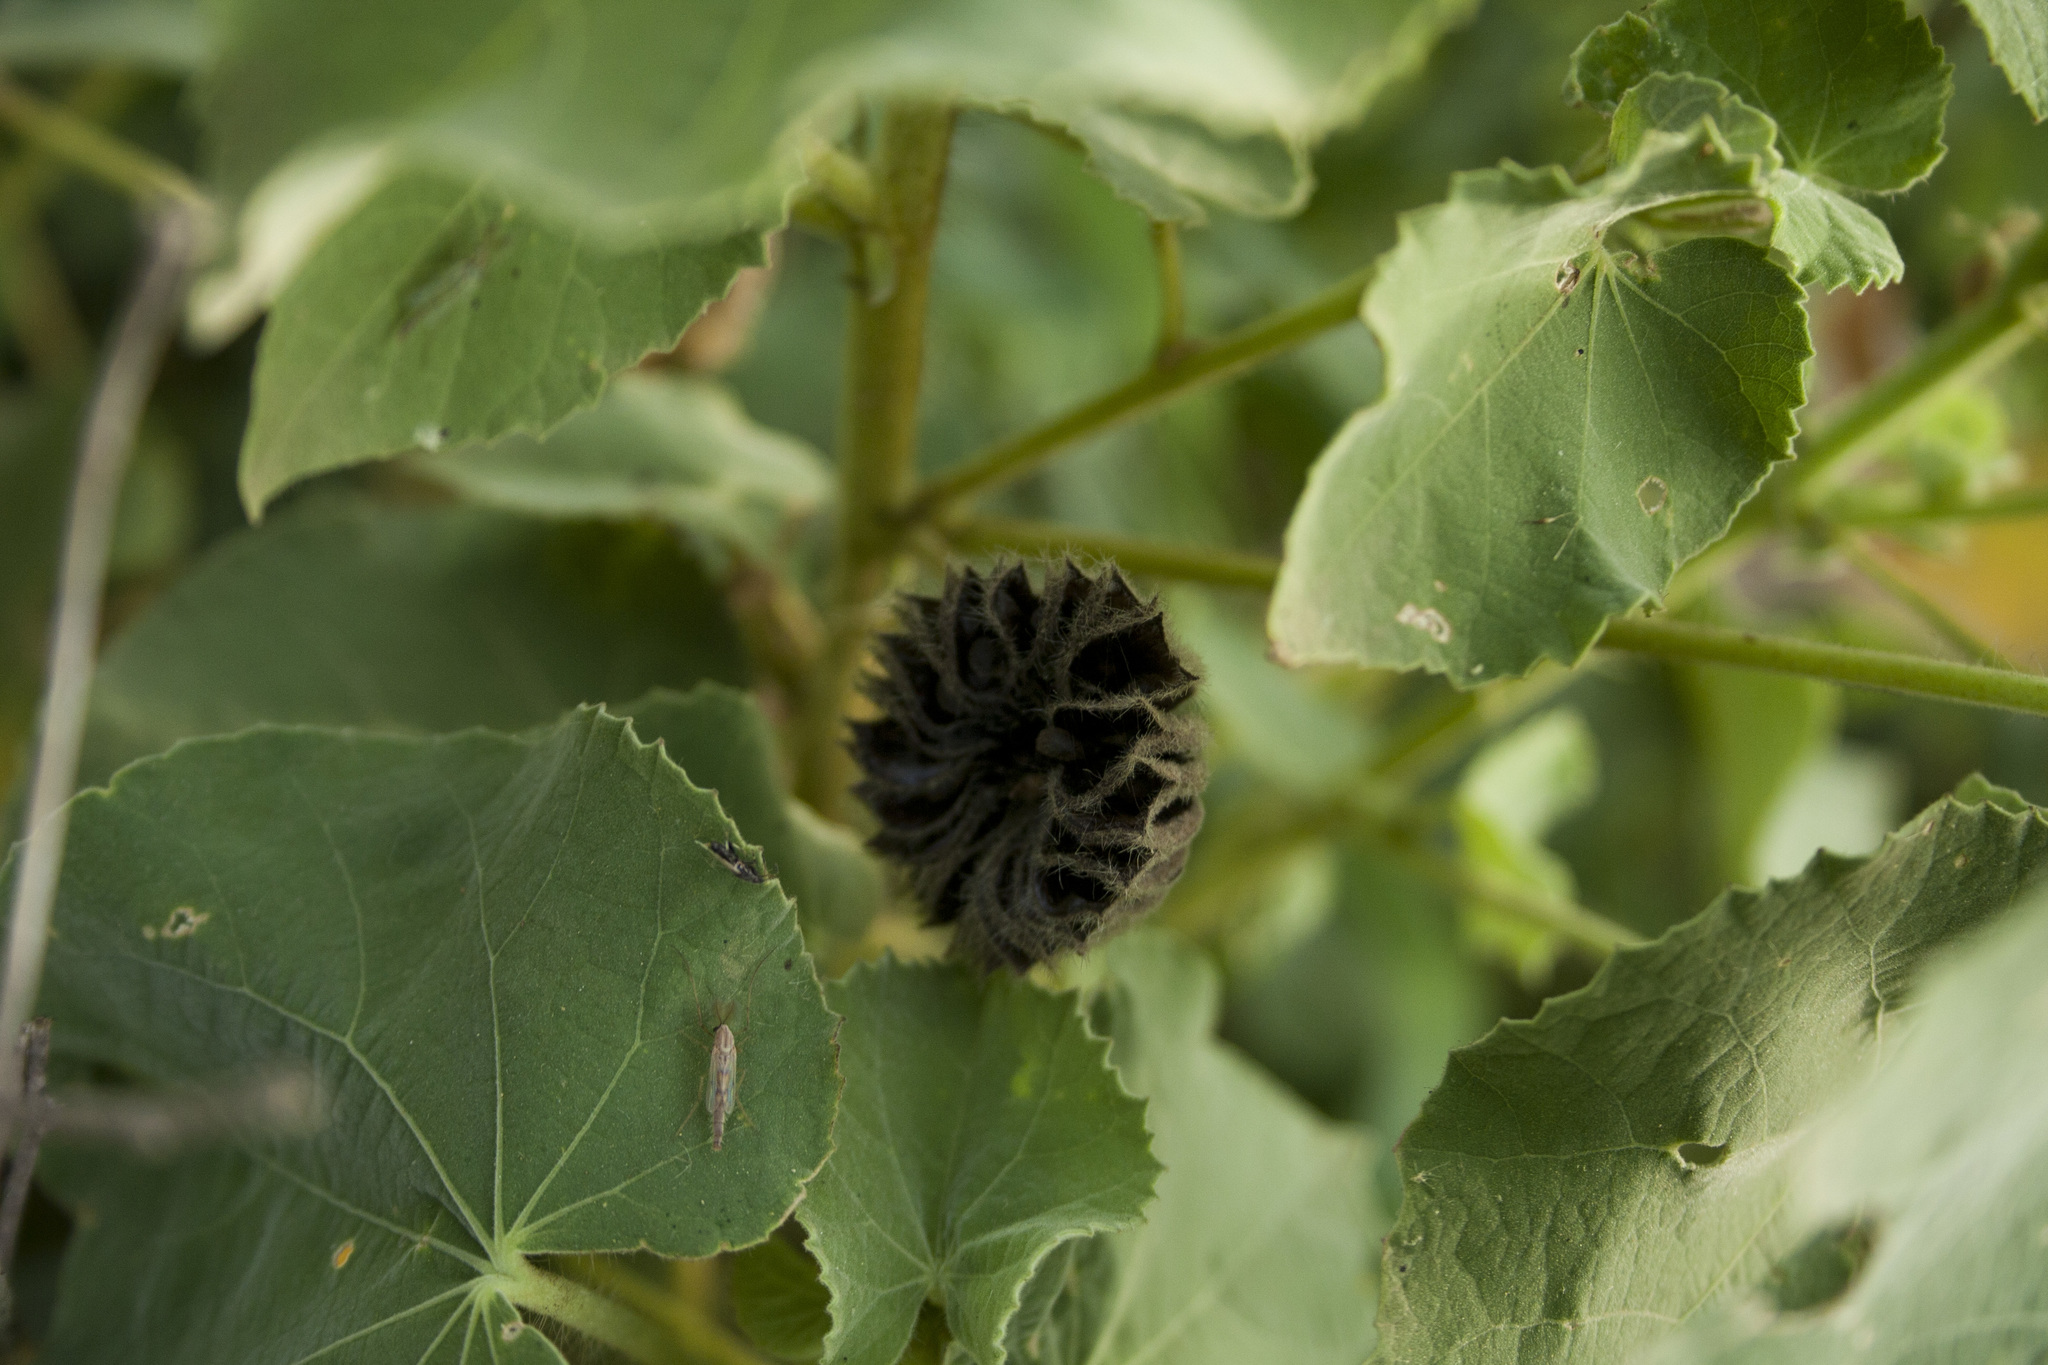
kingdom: Plantae
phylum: Tracheophyta
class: Magnoliopsida
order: Malvales
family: Malvaceae
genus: Abutilon
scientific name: Abutilon hirtum
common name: Florida keys indian mallow
